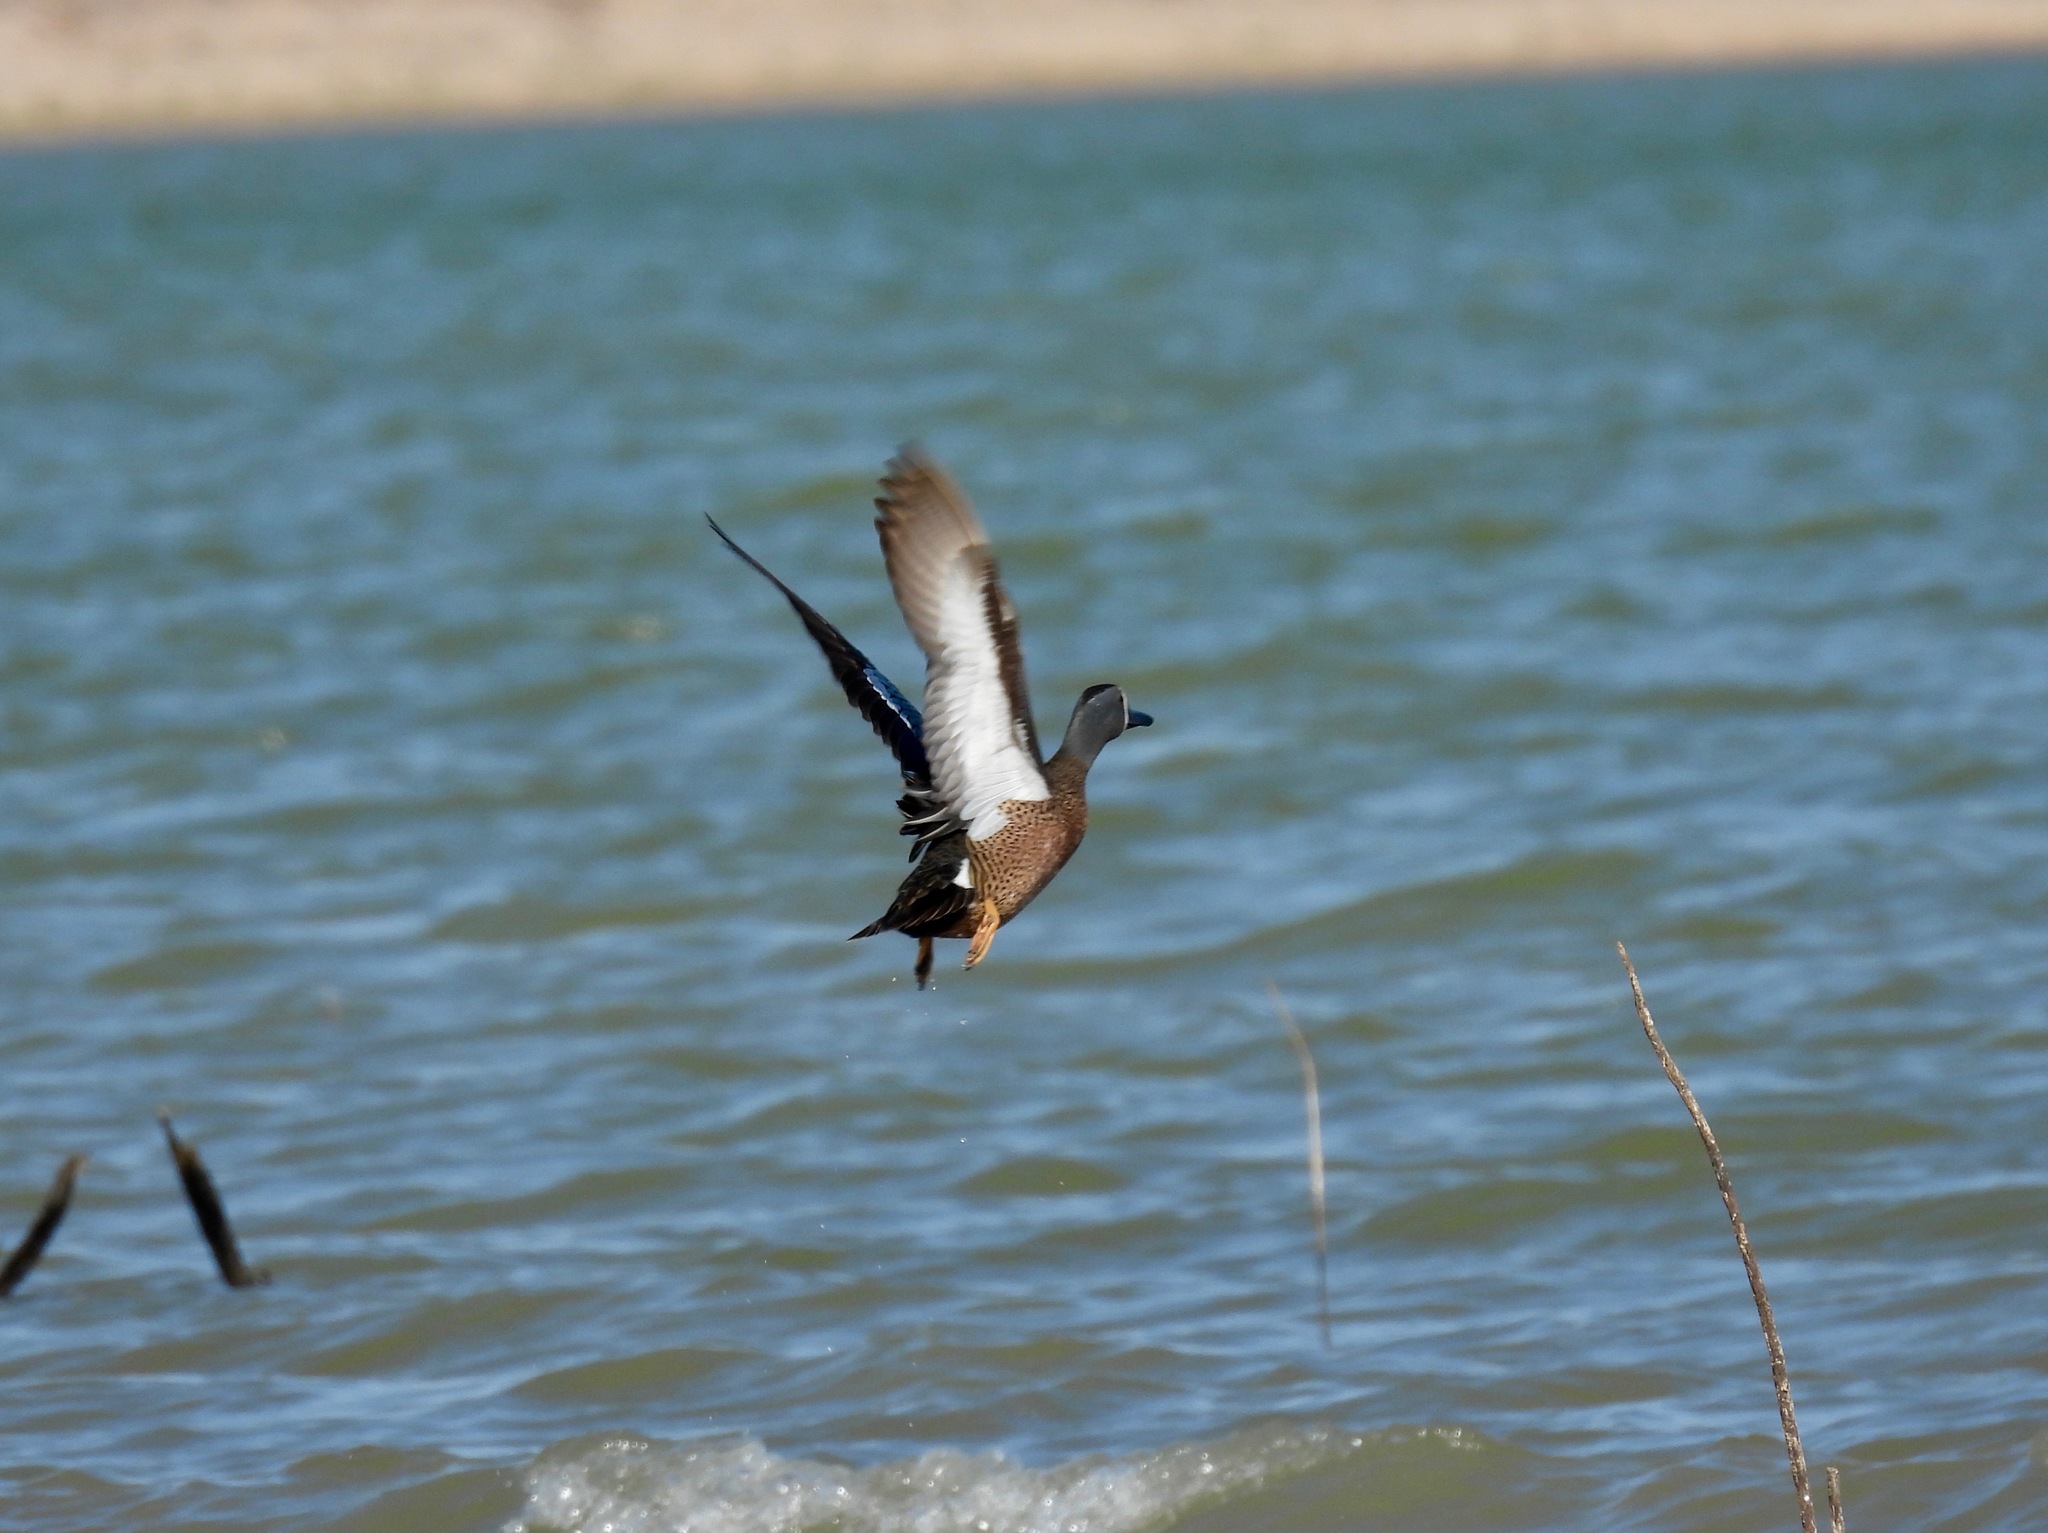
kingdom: Animalia
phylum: Chordata
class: Aves
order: Anseriformes
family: Anatidae
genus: Spatula
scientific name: Spatula discors
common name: Blue-winged teal
